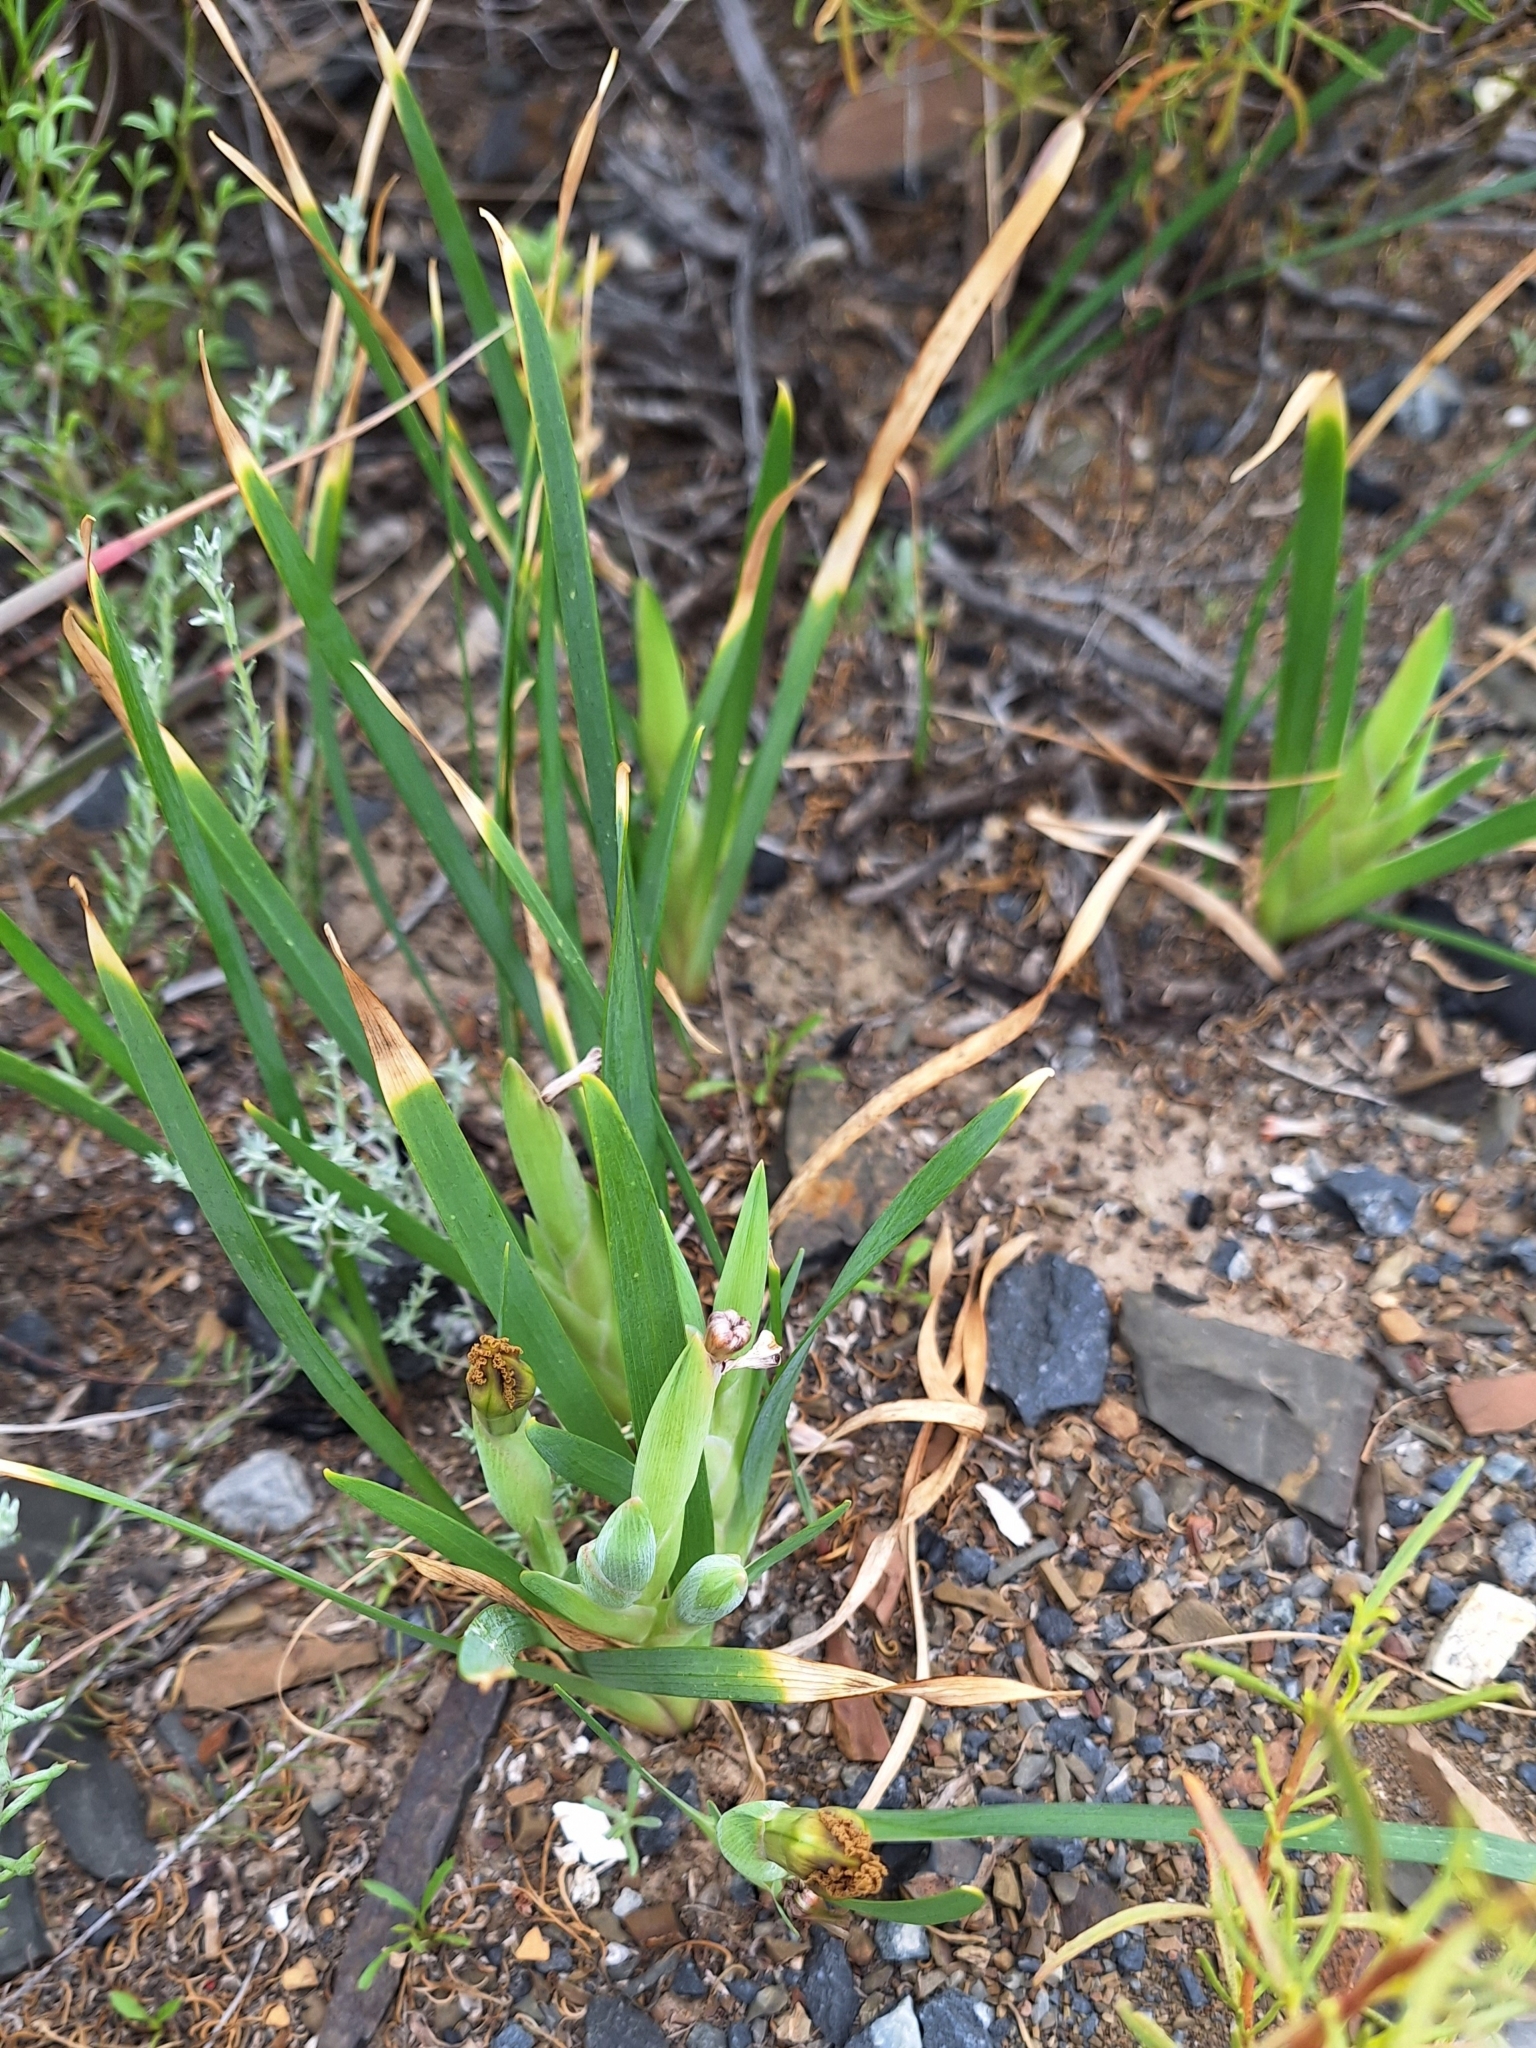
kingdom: Plantae
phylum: Tracheophyta
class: Liliopsida
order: Asparagales
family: Iridaceae
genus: Ferraria
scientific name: Ferraria variabilis
